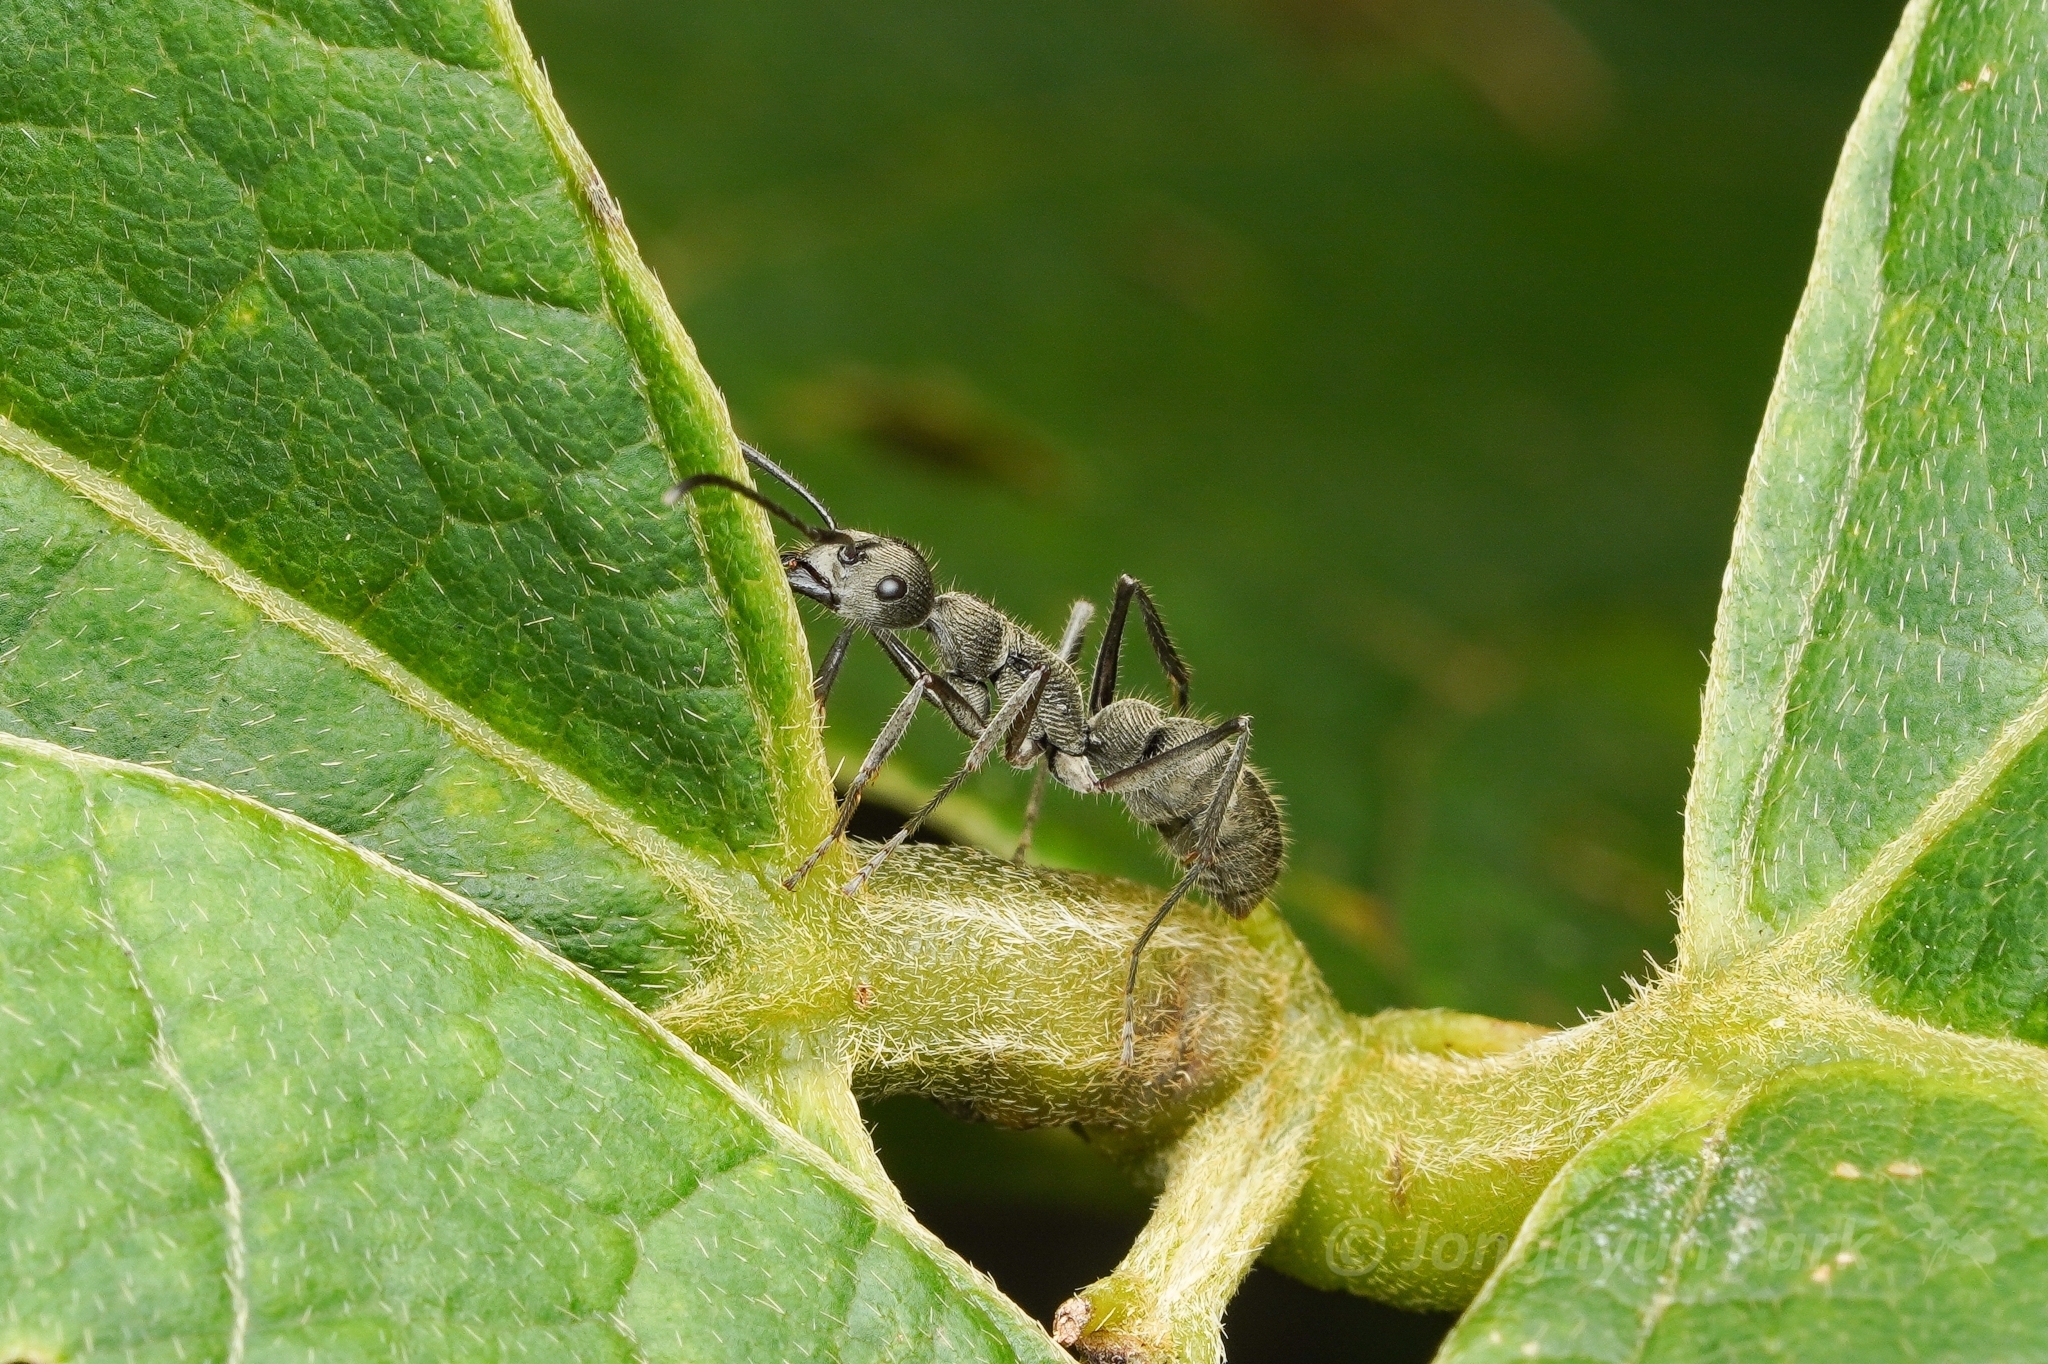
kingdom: Animalia
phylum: Arthropoda
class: Insecta
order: Hymenoptera
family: Formicidae
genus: Diacamma
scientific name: Diacamma
